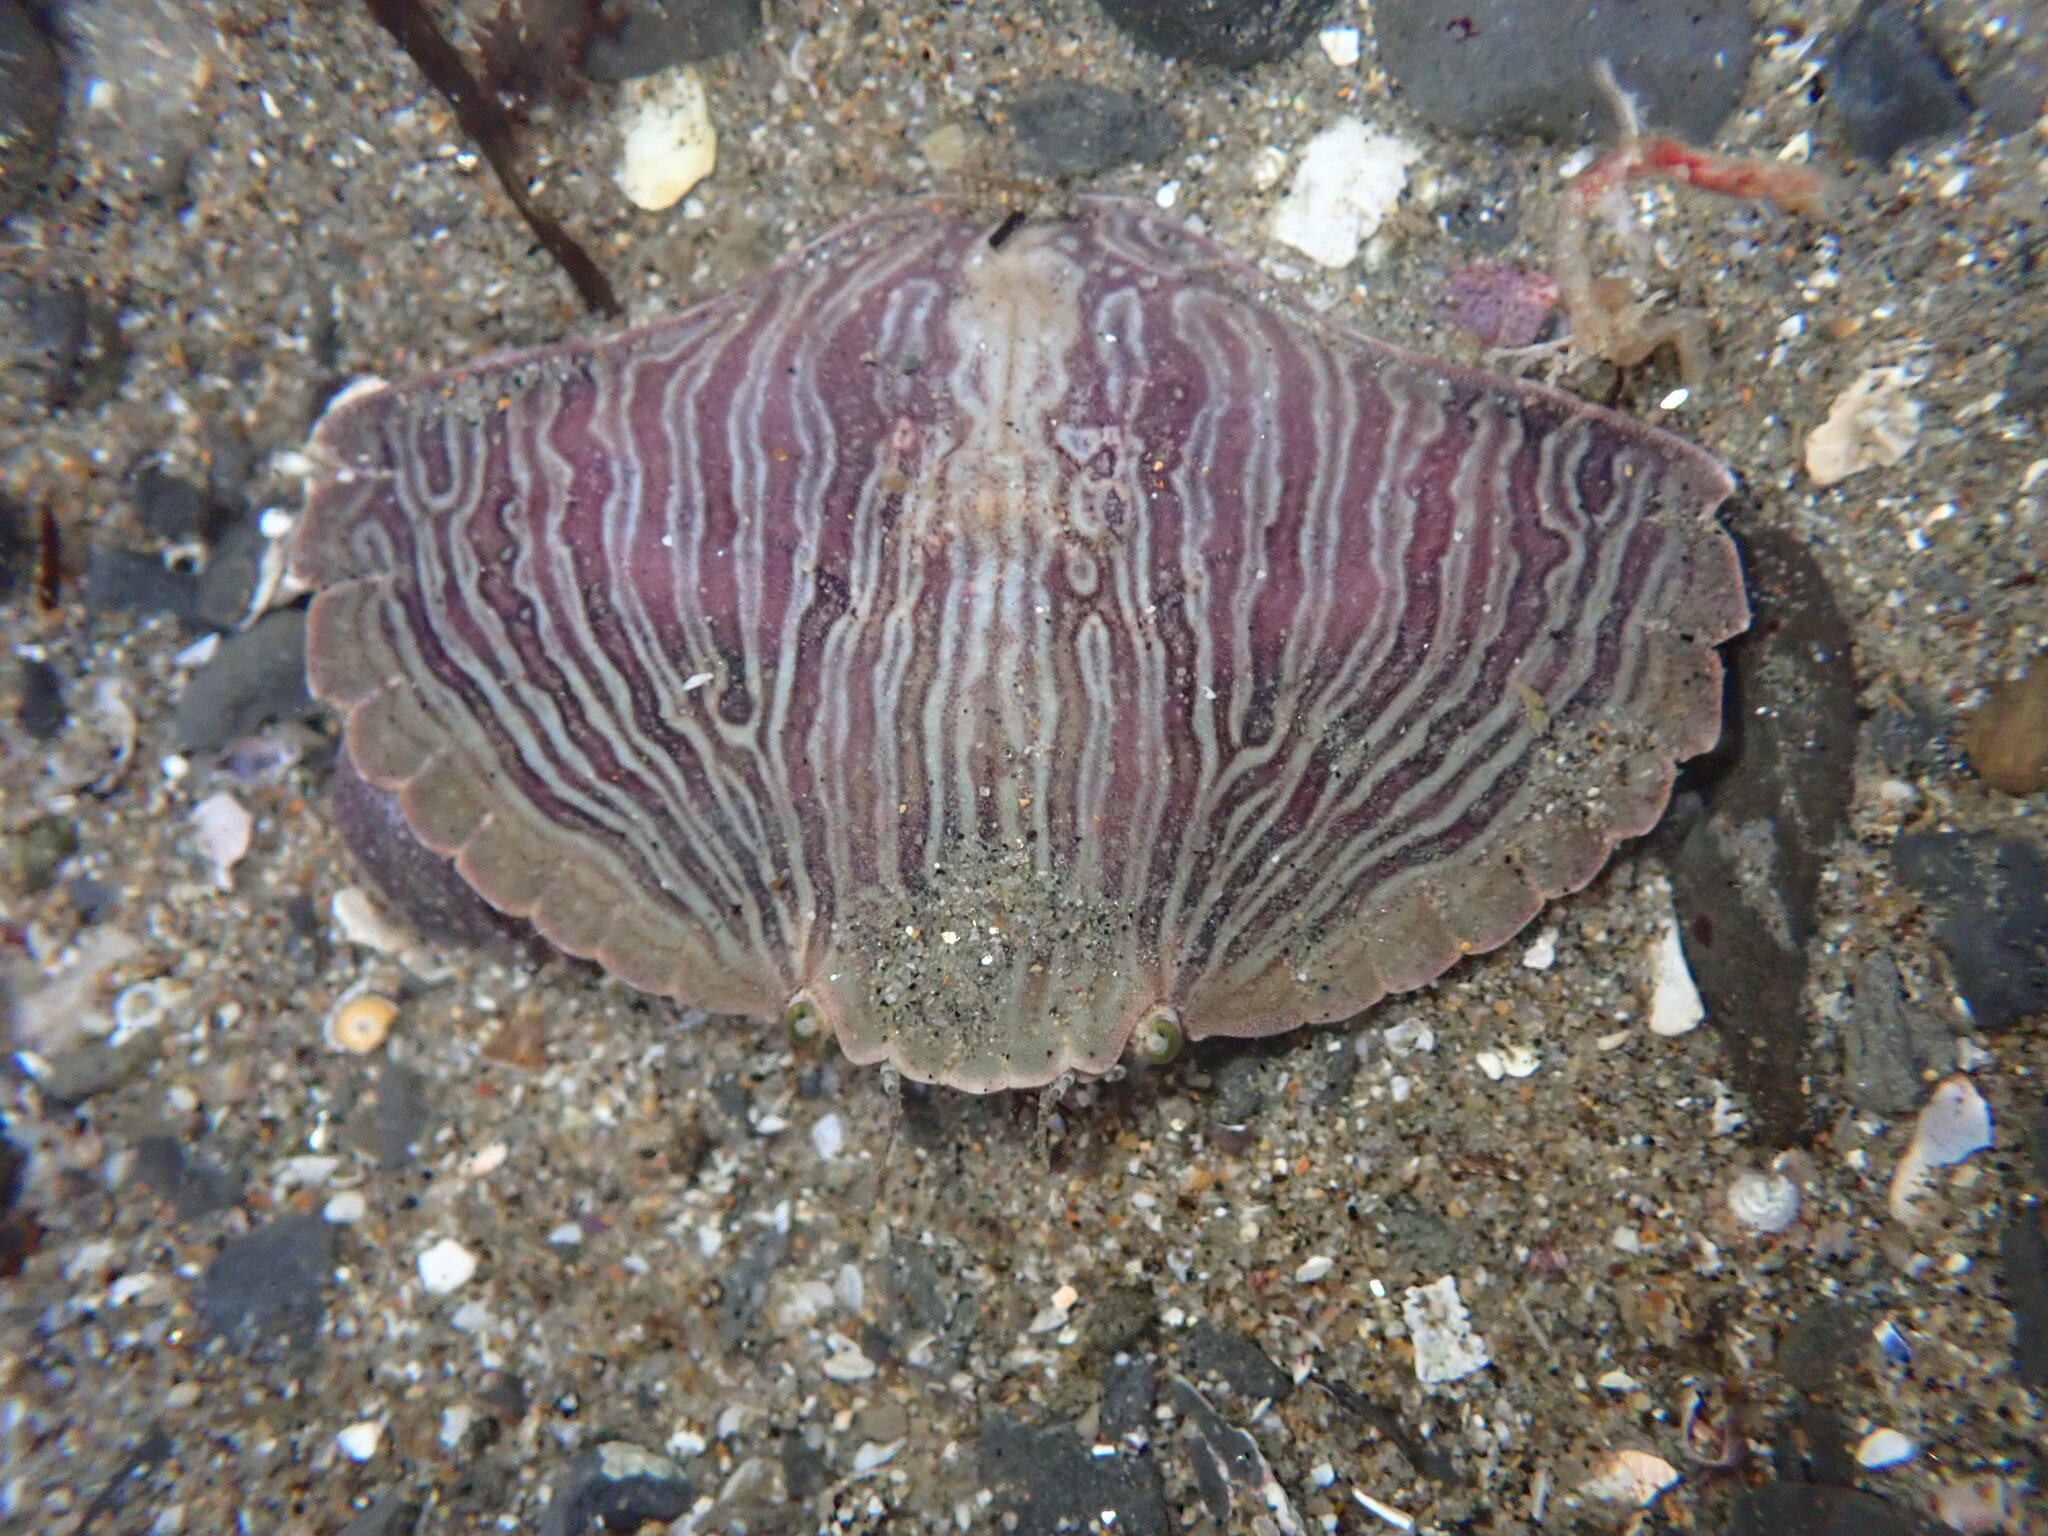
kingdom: Animalia
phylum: Arthropoda
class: Malacostraca
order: Decapoda
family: Cancridae
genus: Cancer
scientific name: Cancer productus
